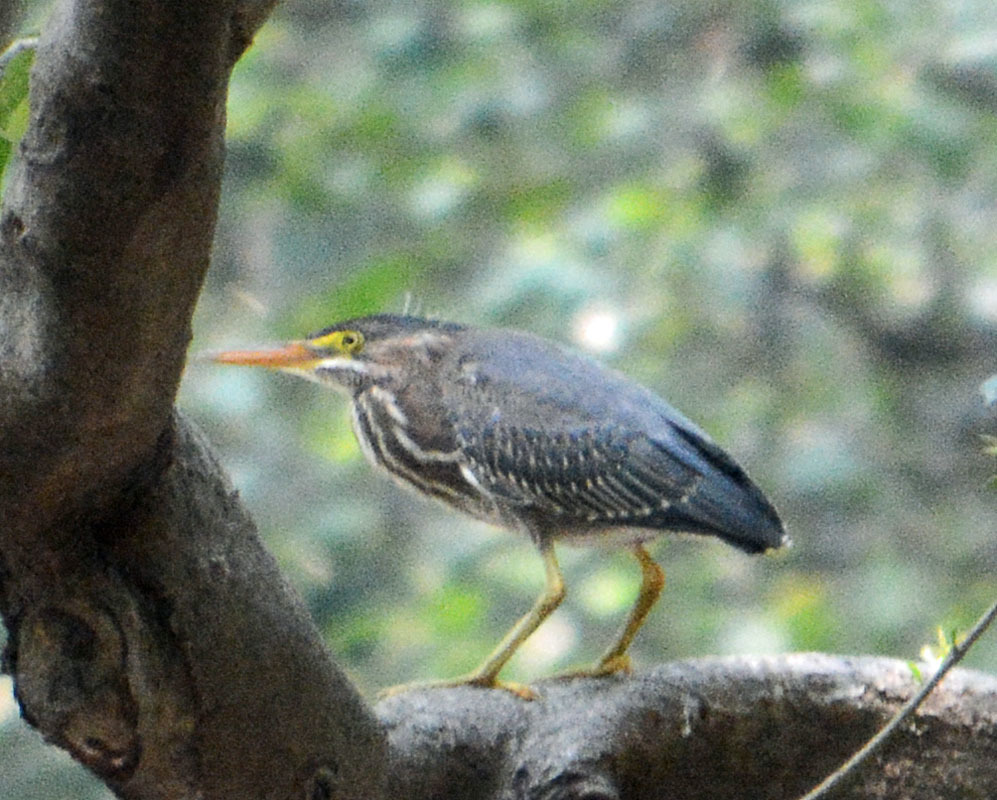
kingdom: Animalia
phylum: Chordata
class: Aves
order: Pelecaniformes
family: Ardeidae
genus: Butorides
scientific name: Butorides virescens
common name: Green heron
